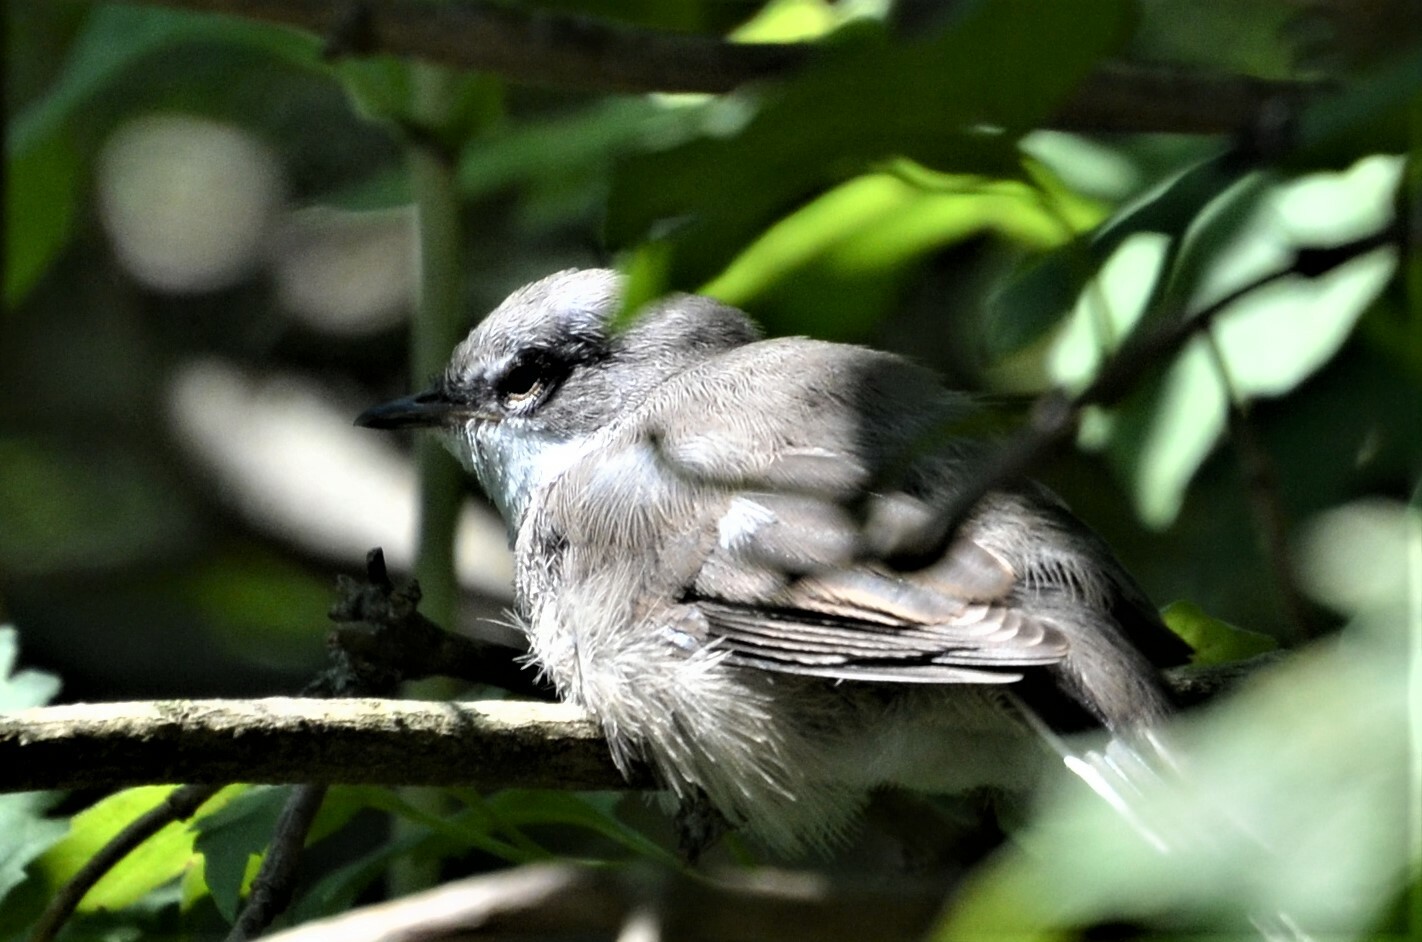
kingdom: Animalia
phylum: Chordata
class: Aves
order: Passeriformes
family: Sylviidae
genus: Sylvia
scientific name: Sylvia curruca
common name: Lesser whitethroat
